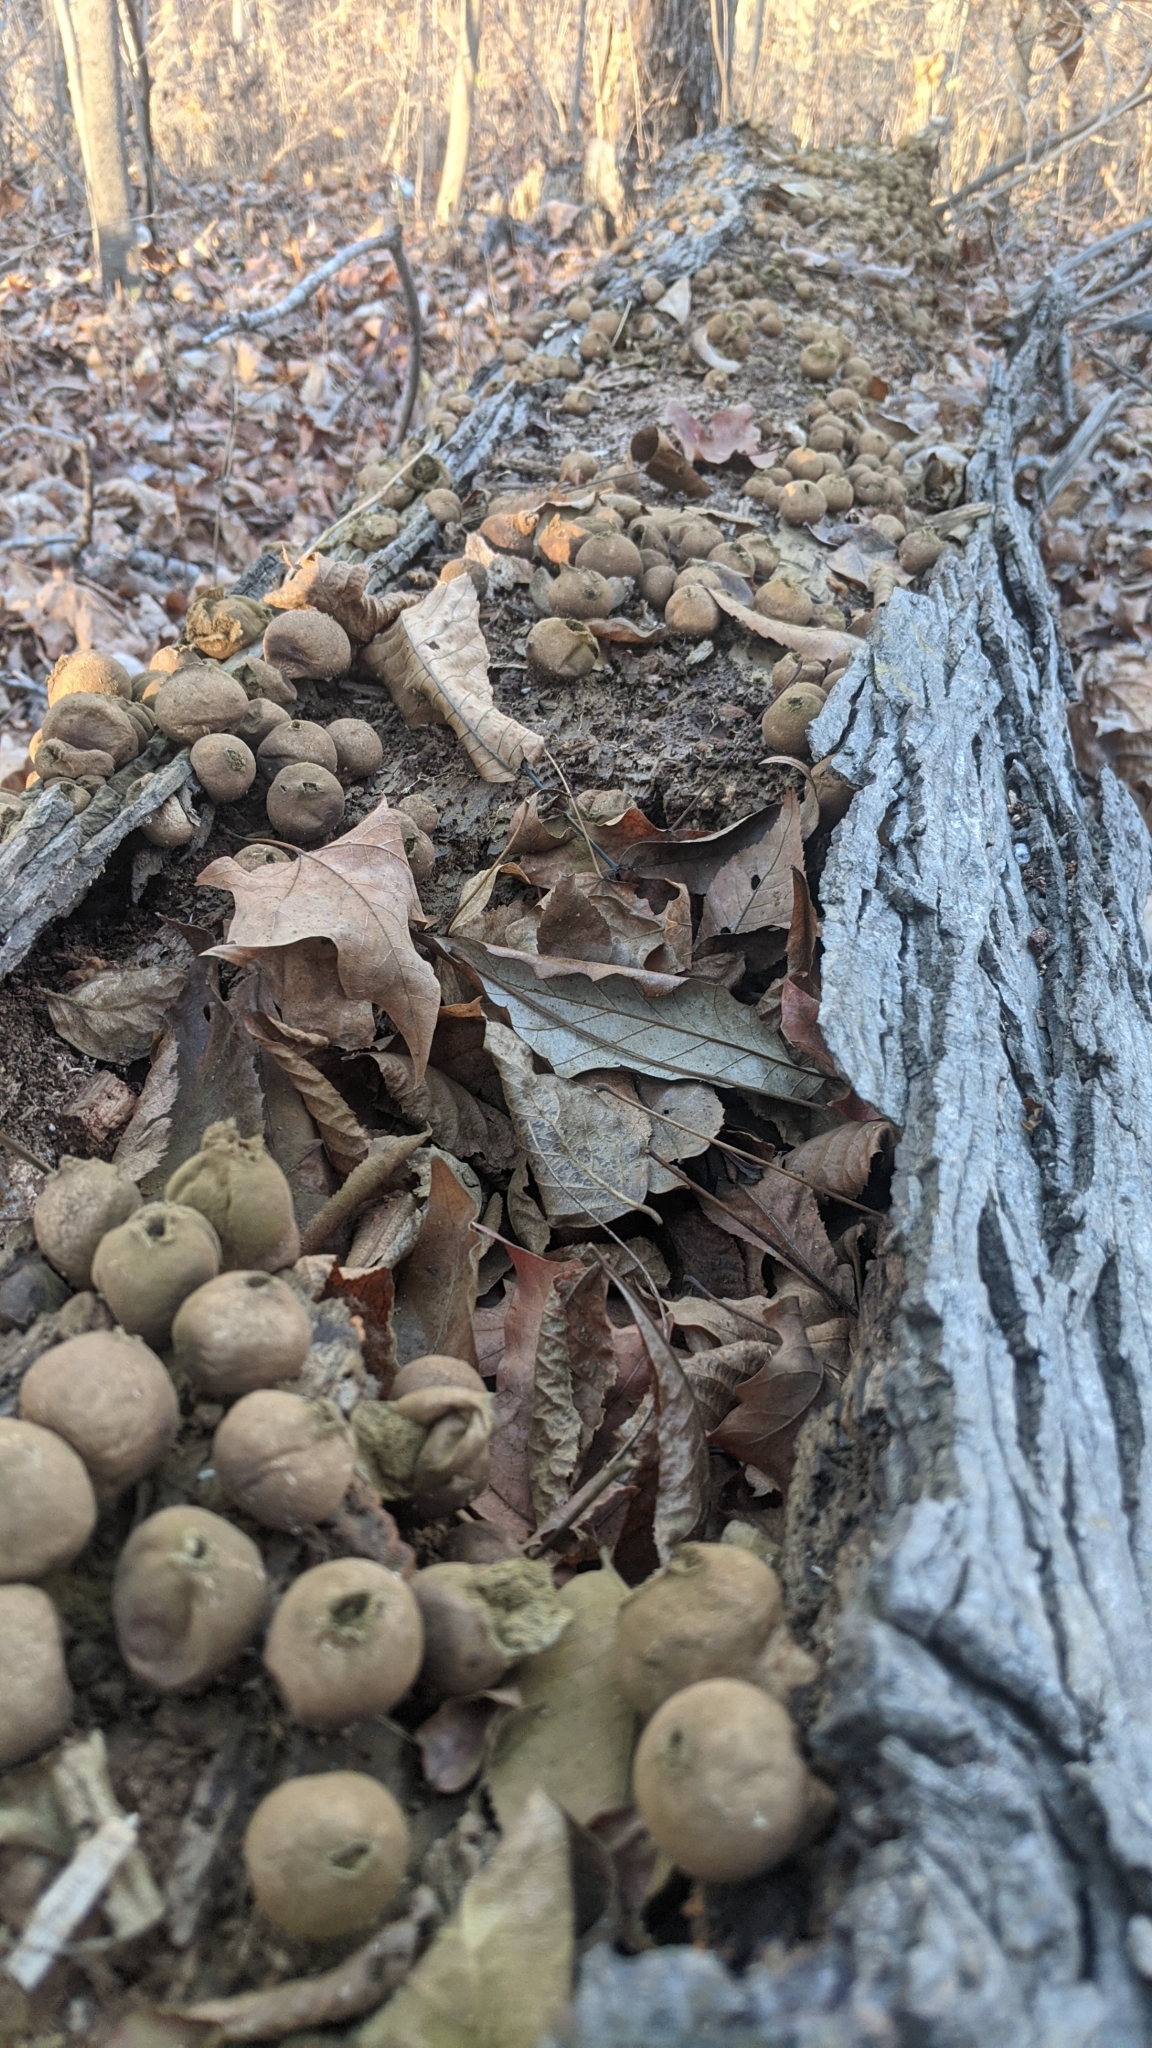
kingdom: Fungi
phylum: Basidiomycota
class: Agaricomycetes
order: Agaricales
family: Lycoperdaceae
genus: Apioperdon
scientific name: Apioperdon pyriforme
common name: Pear-shaped puffball
